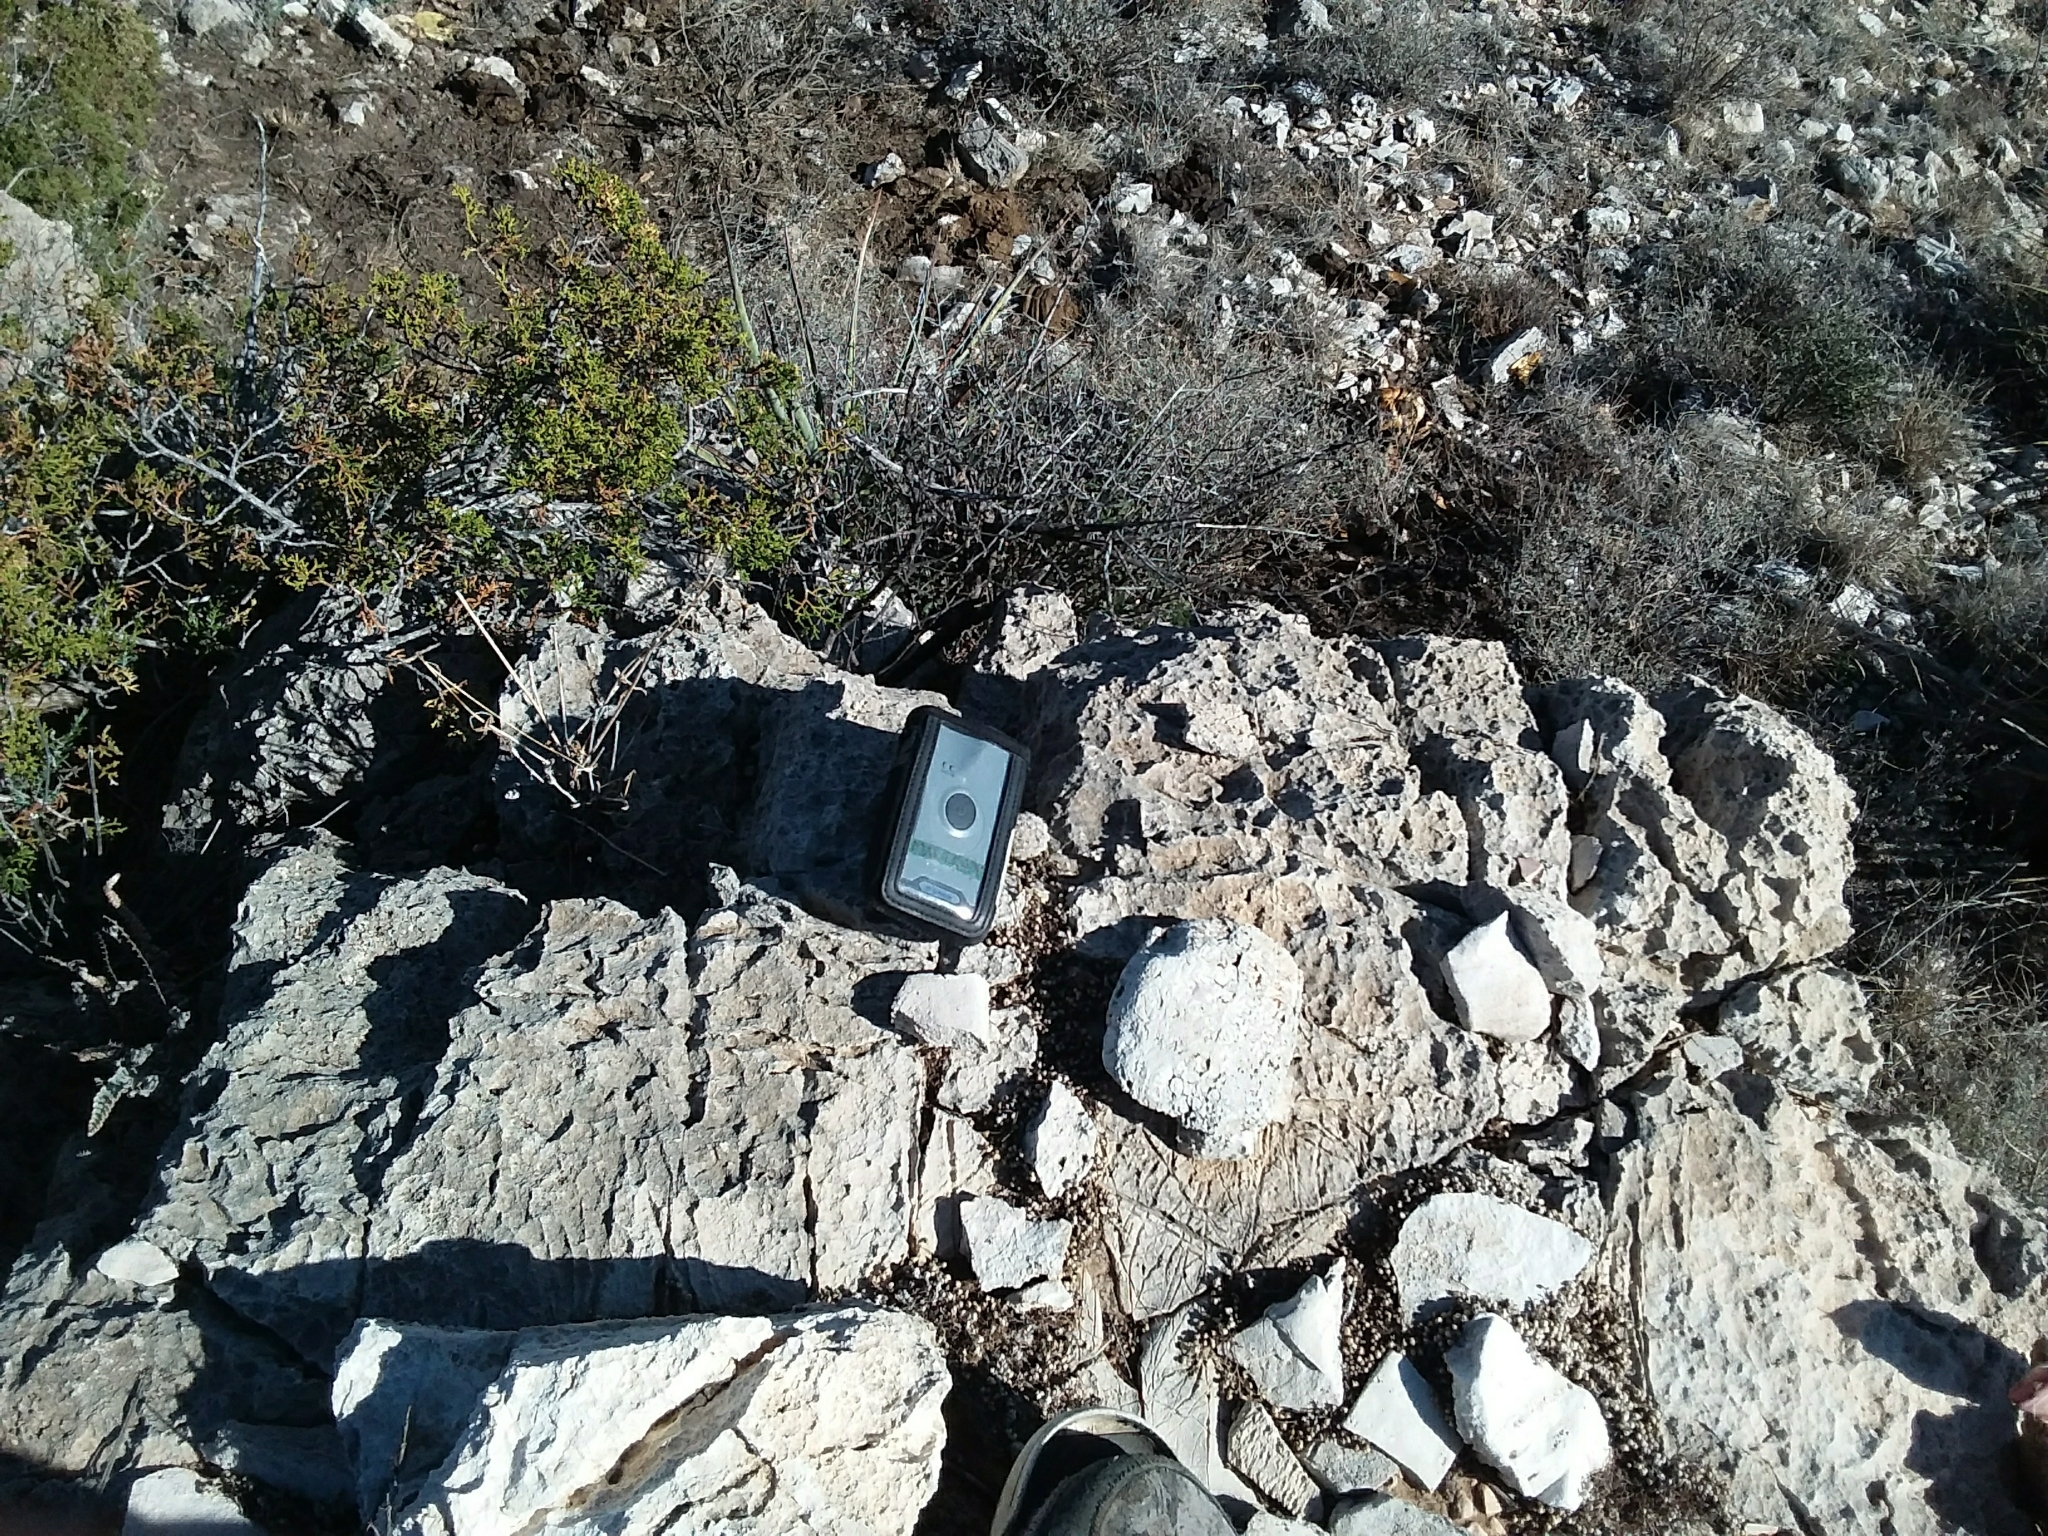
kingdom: Plantae
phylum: Tracheophyta
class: Magnoliopsida
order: Caryophyllales
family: Cactaceae
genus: Echinocereus
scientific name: Echinocereus viridiflorus
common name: Nylon hedgehog cactus
